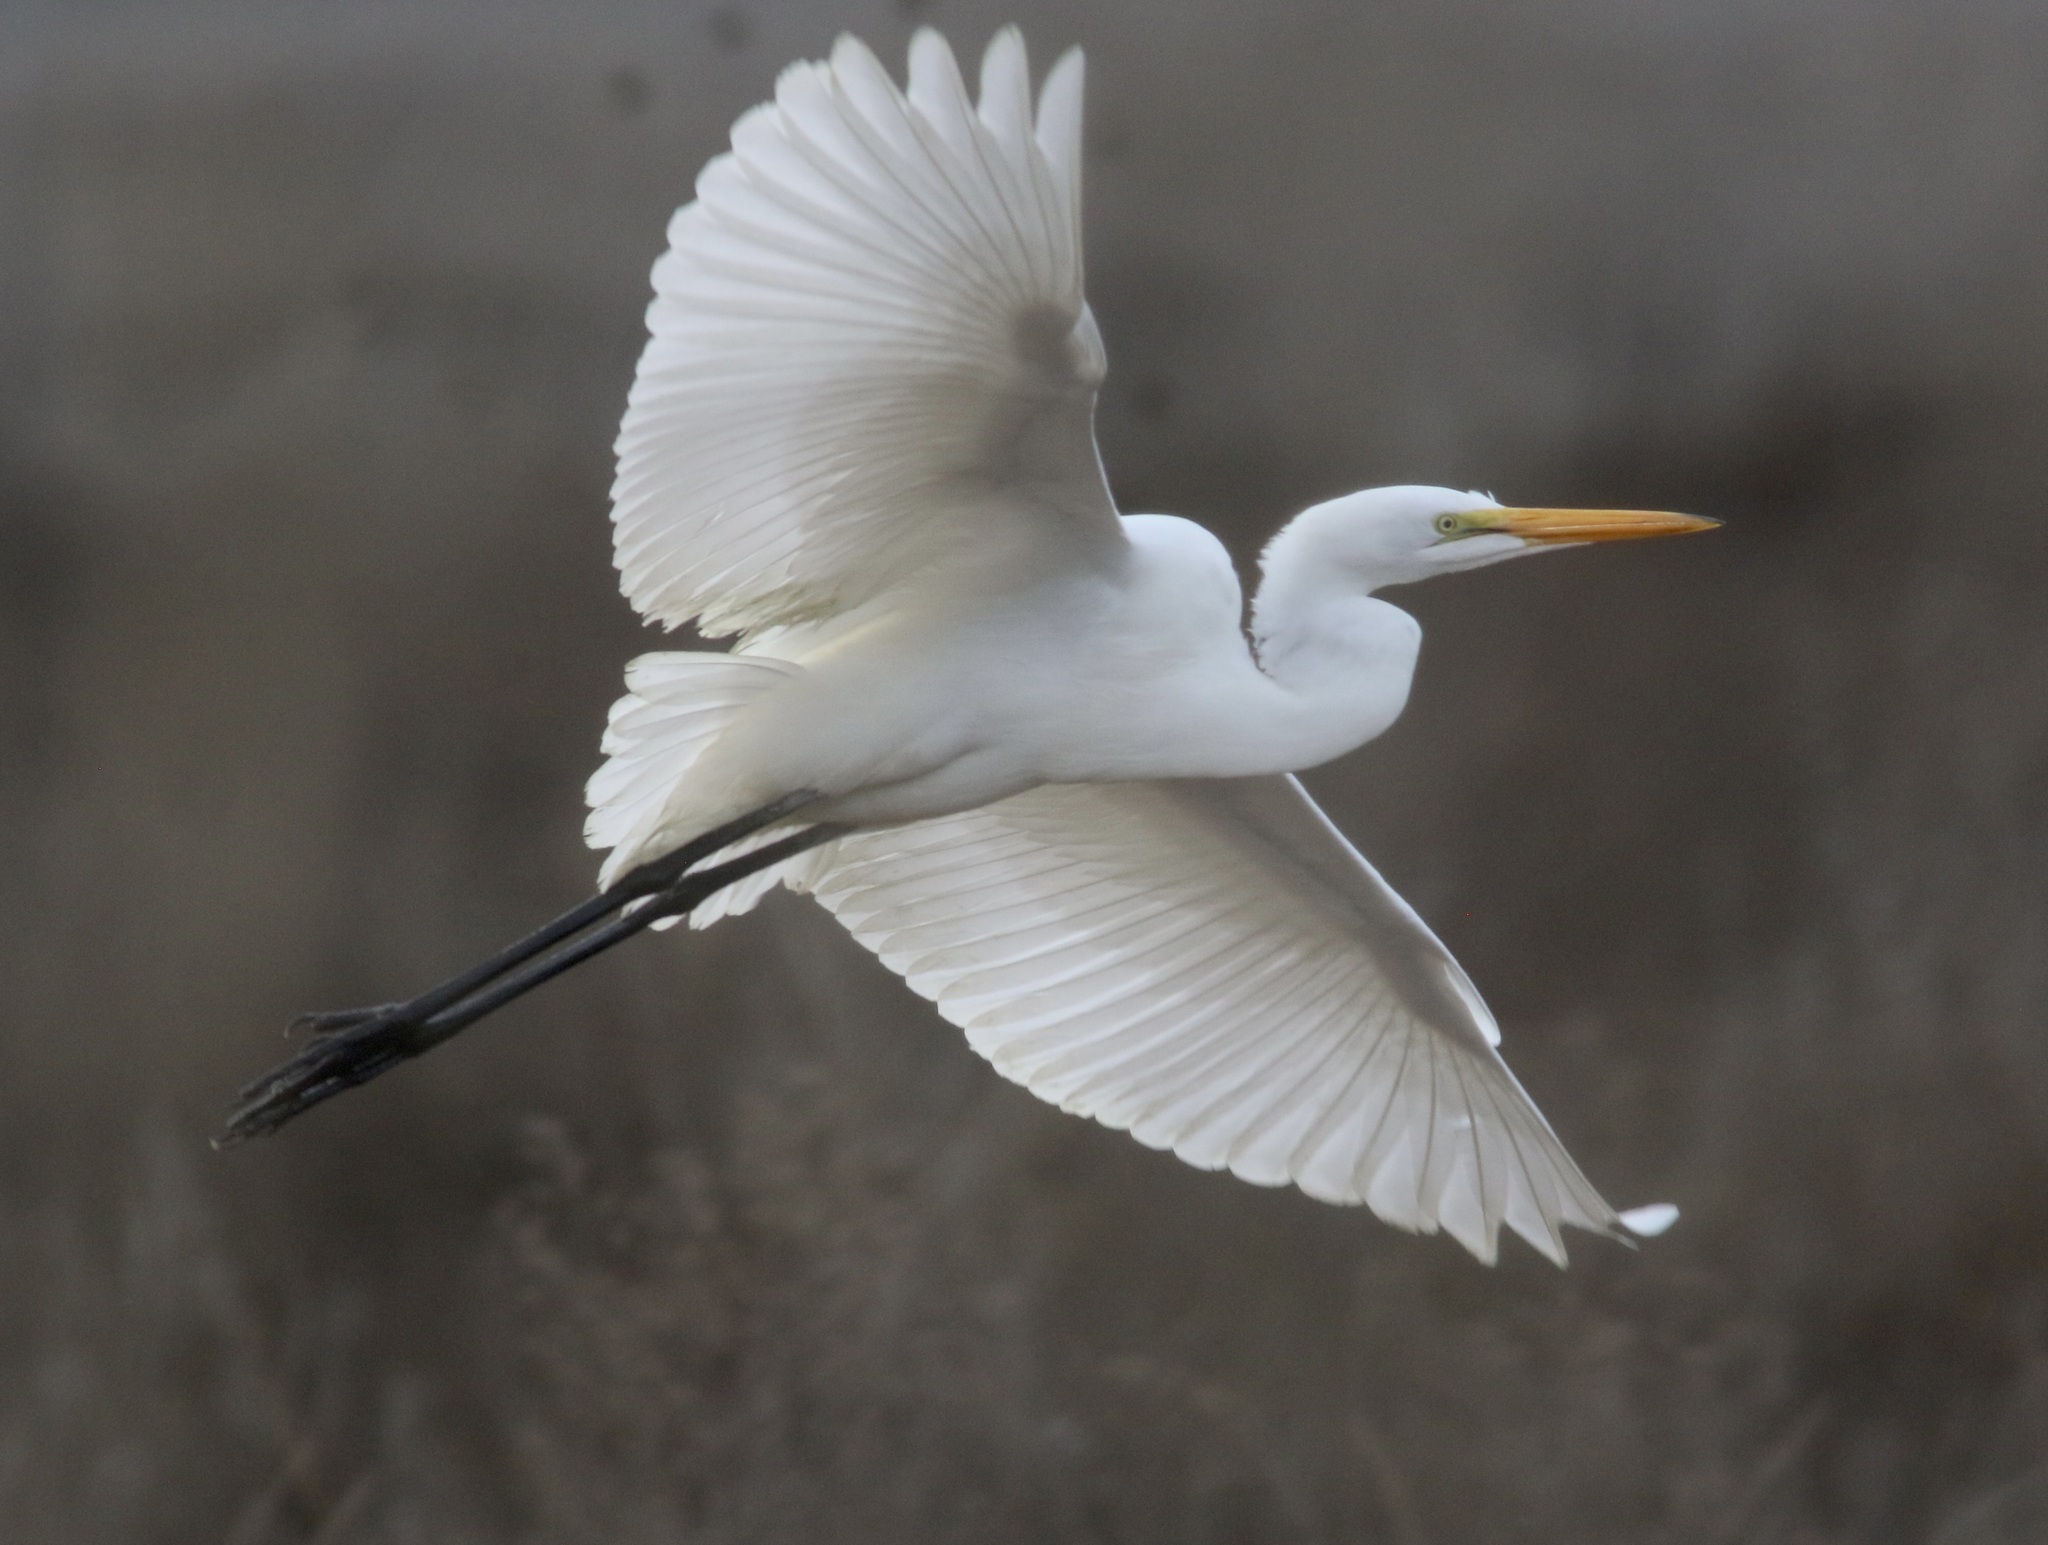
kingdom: Animalia
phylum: Chordata
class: Aves
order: Pelecaniformes
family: Ardeidae
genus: Ardea
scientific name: Ardea alba
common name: Great egret
